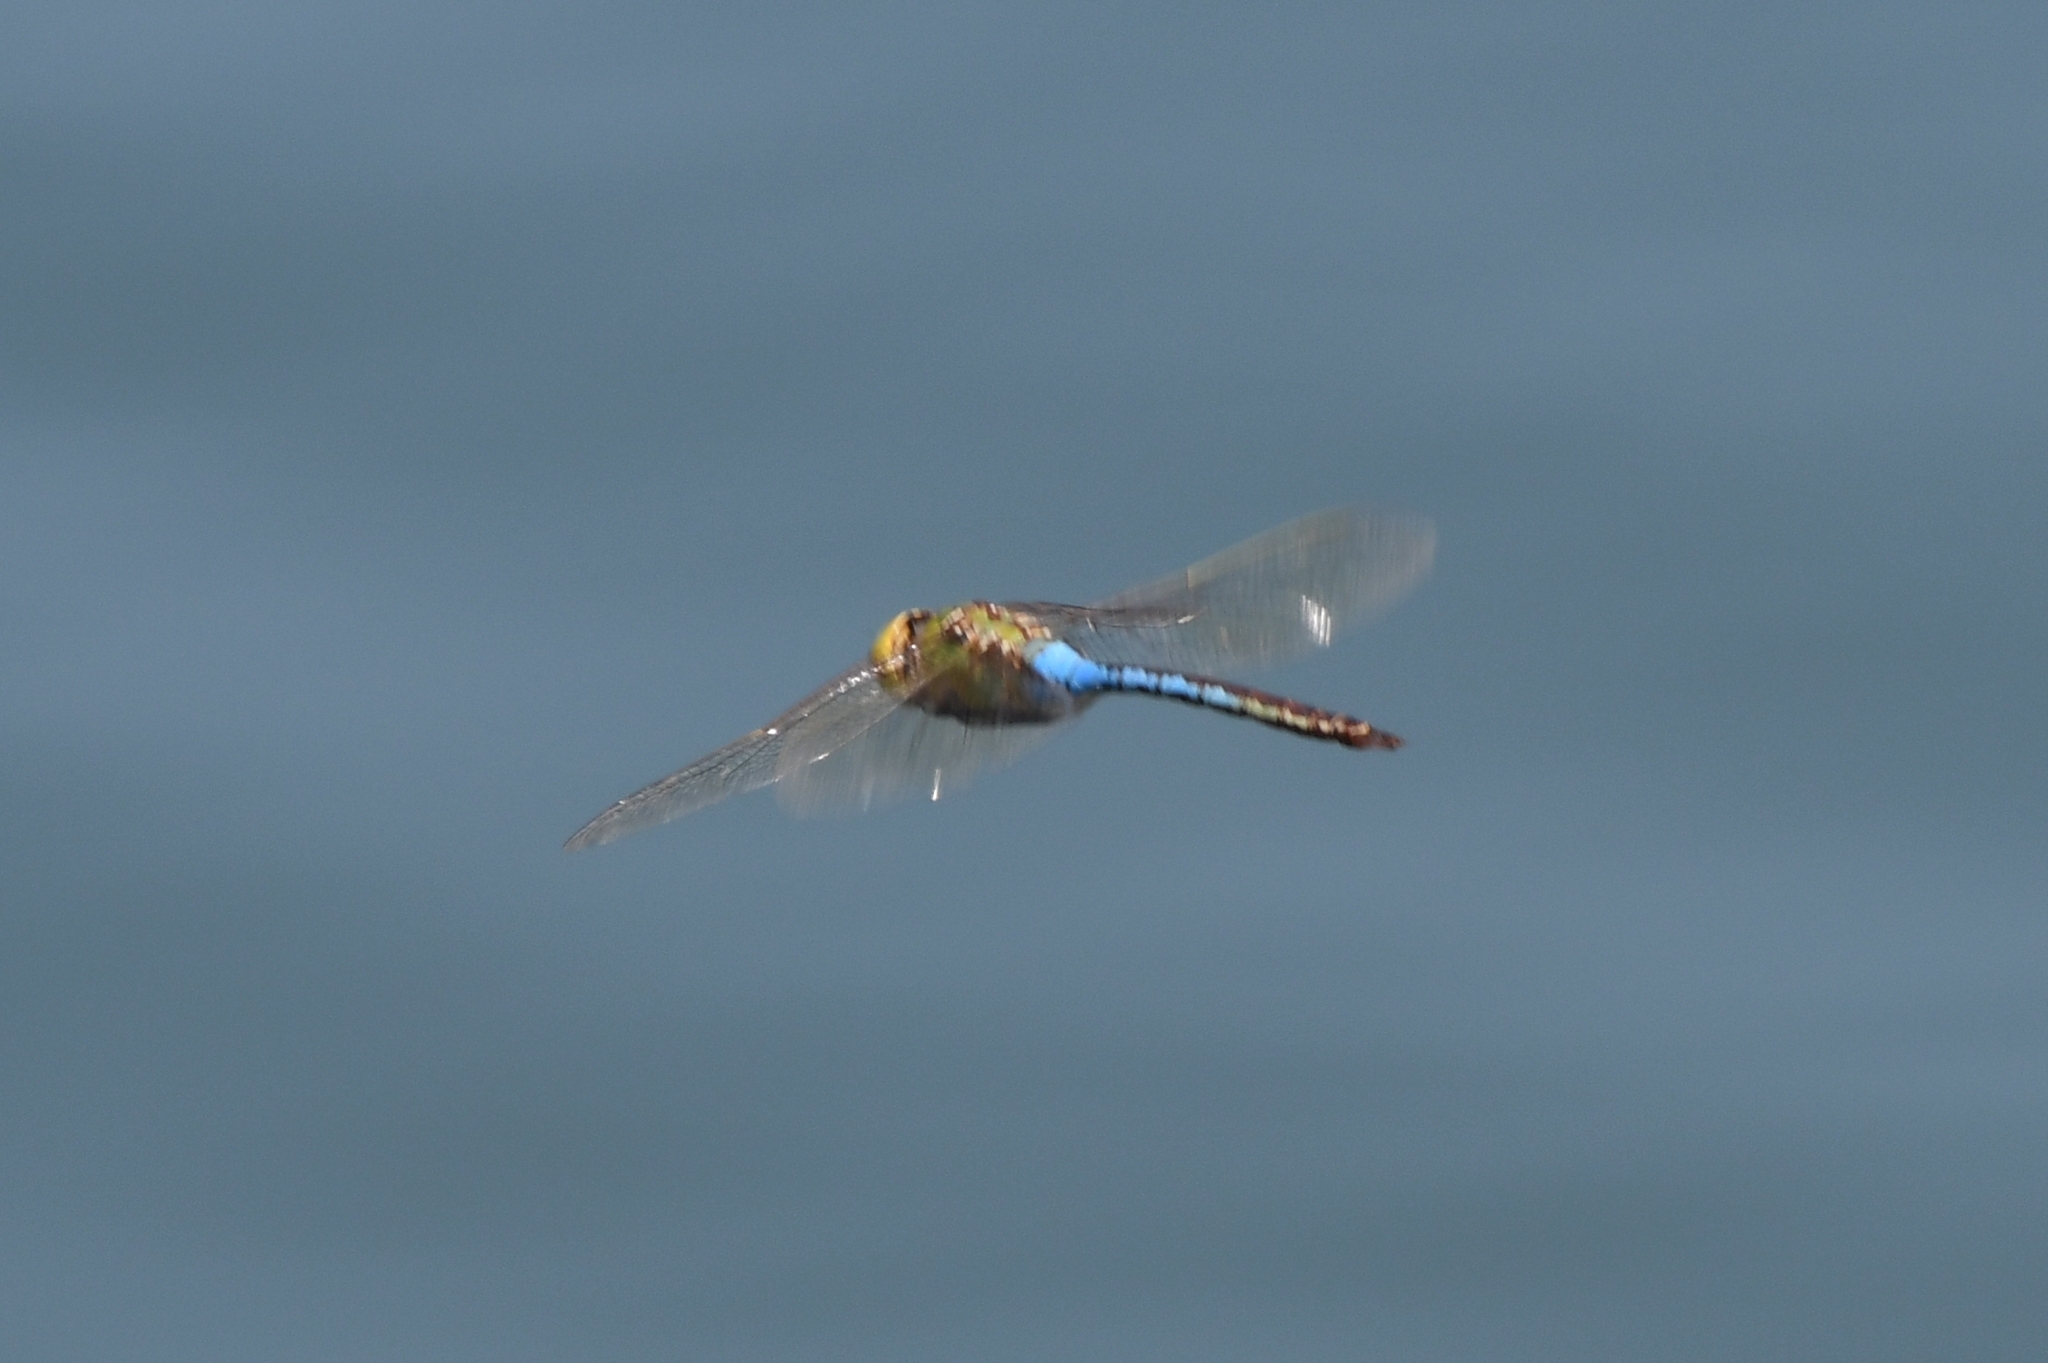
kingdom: Animalia
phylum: Arthropoda
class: Insecta
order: Odonata
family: Aeshnidae
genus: Anax
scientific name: Anax junius
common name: Common green darner
